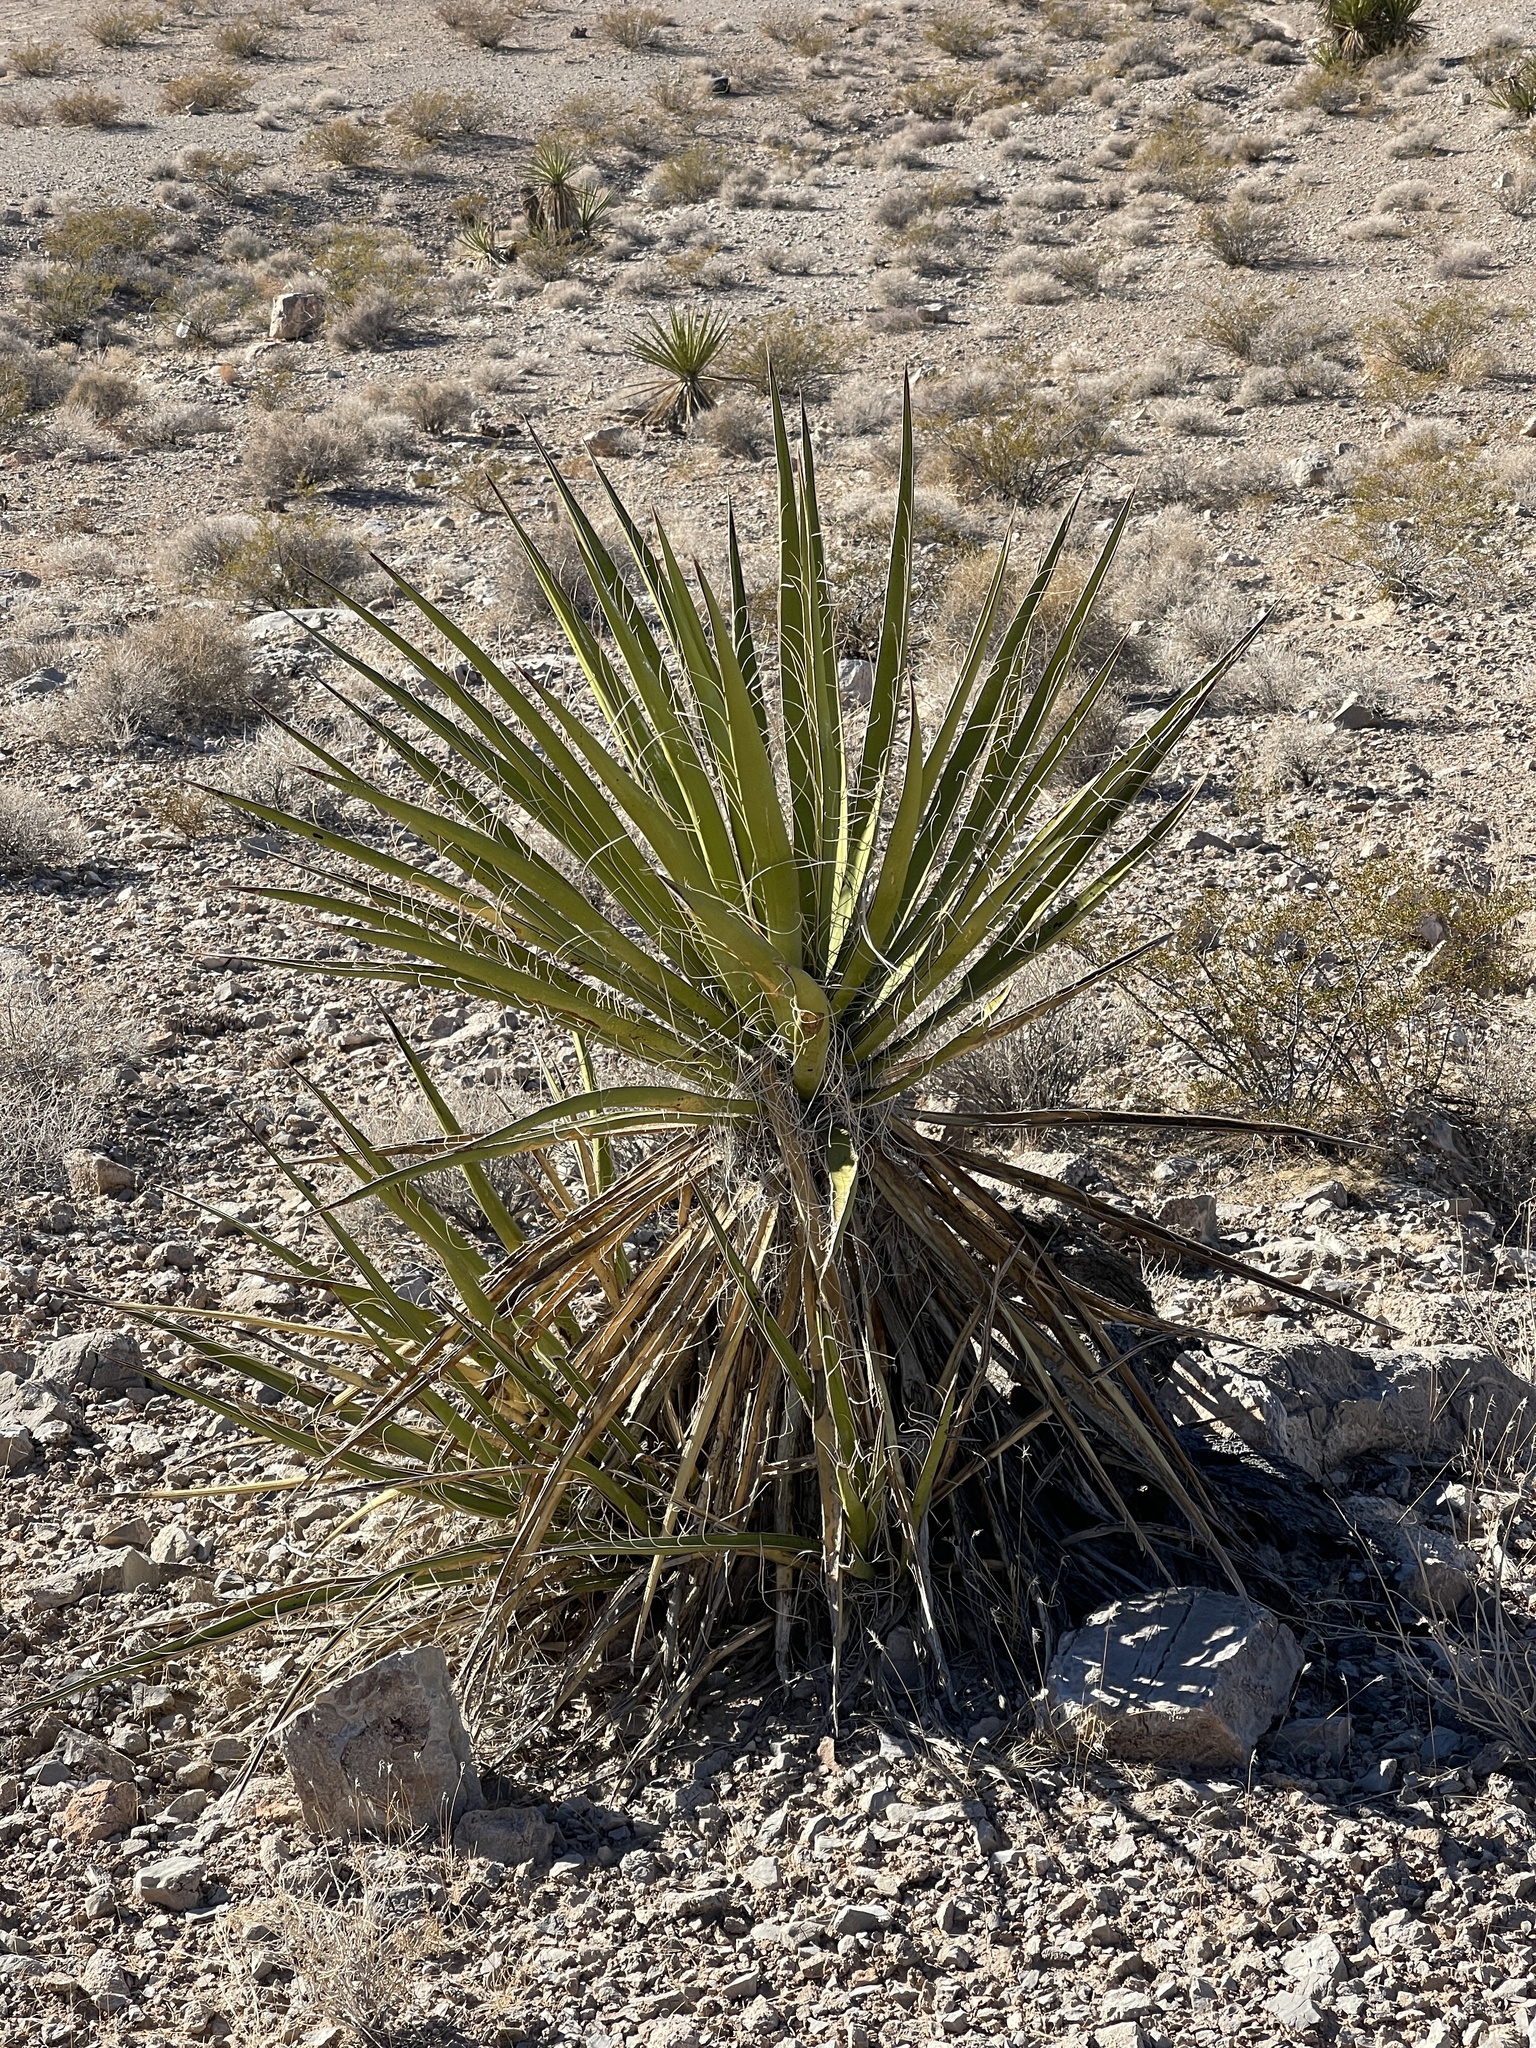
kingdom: Plantae
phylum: Tracheophyta
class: Liliopsida
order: Asparagales
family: Asparagaceae
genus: Yucca
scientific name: Yucca schidigera
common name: Mojave yucca
